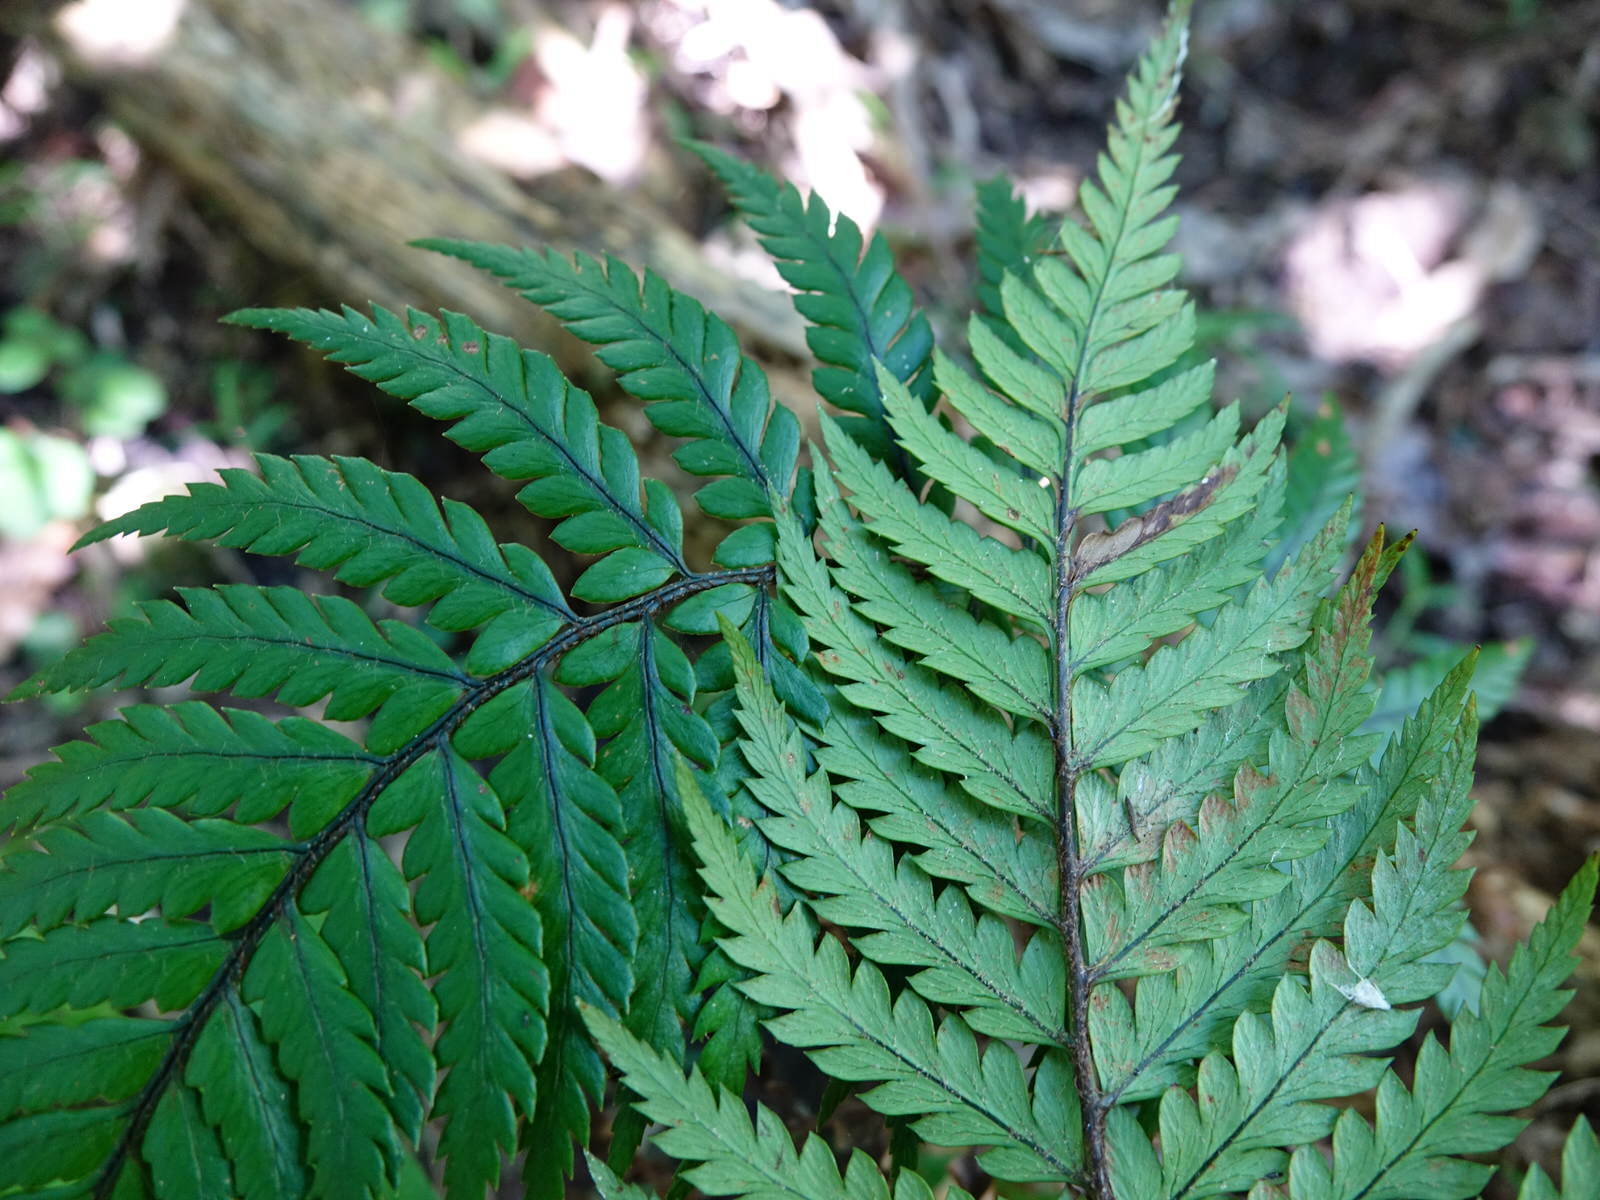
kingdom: Plantae
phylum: Tracheophyta
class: Polypodiopsida
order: Polypodiales
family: Dryopteridaceae
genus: Polystichum
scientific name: Polystichum wawranum
